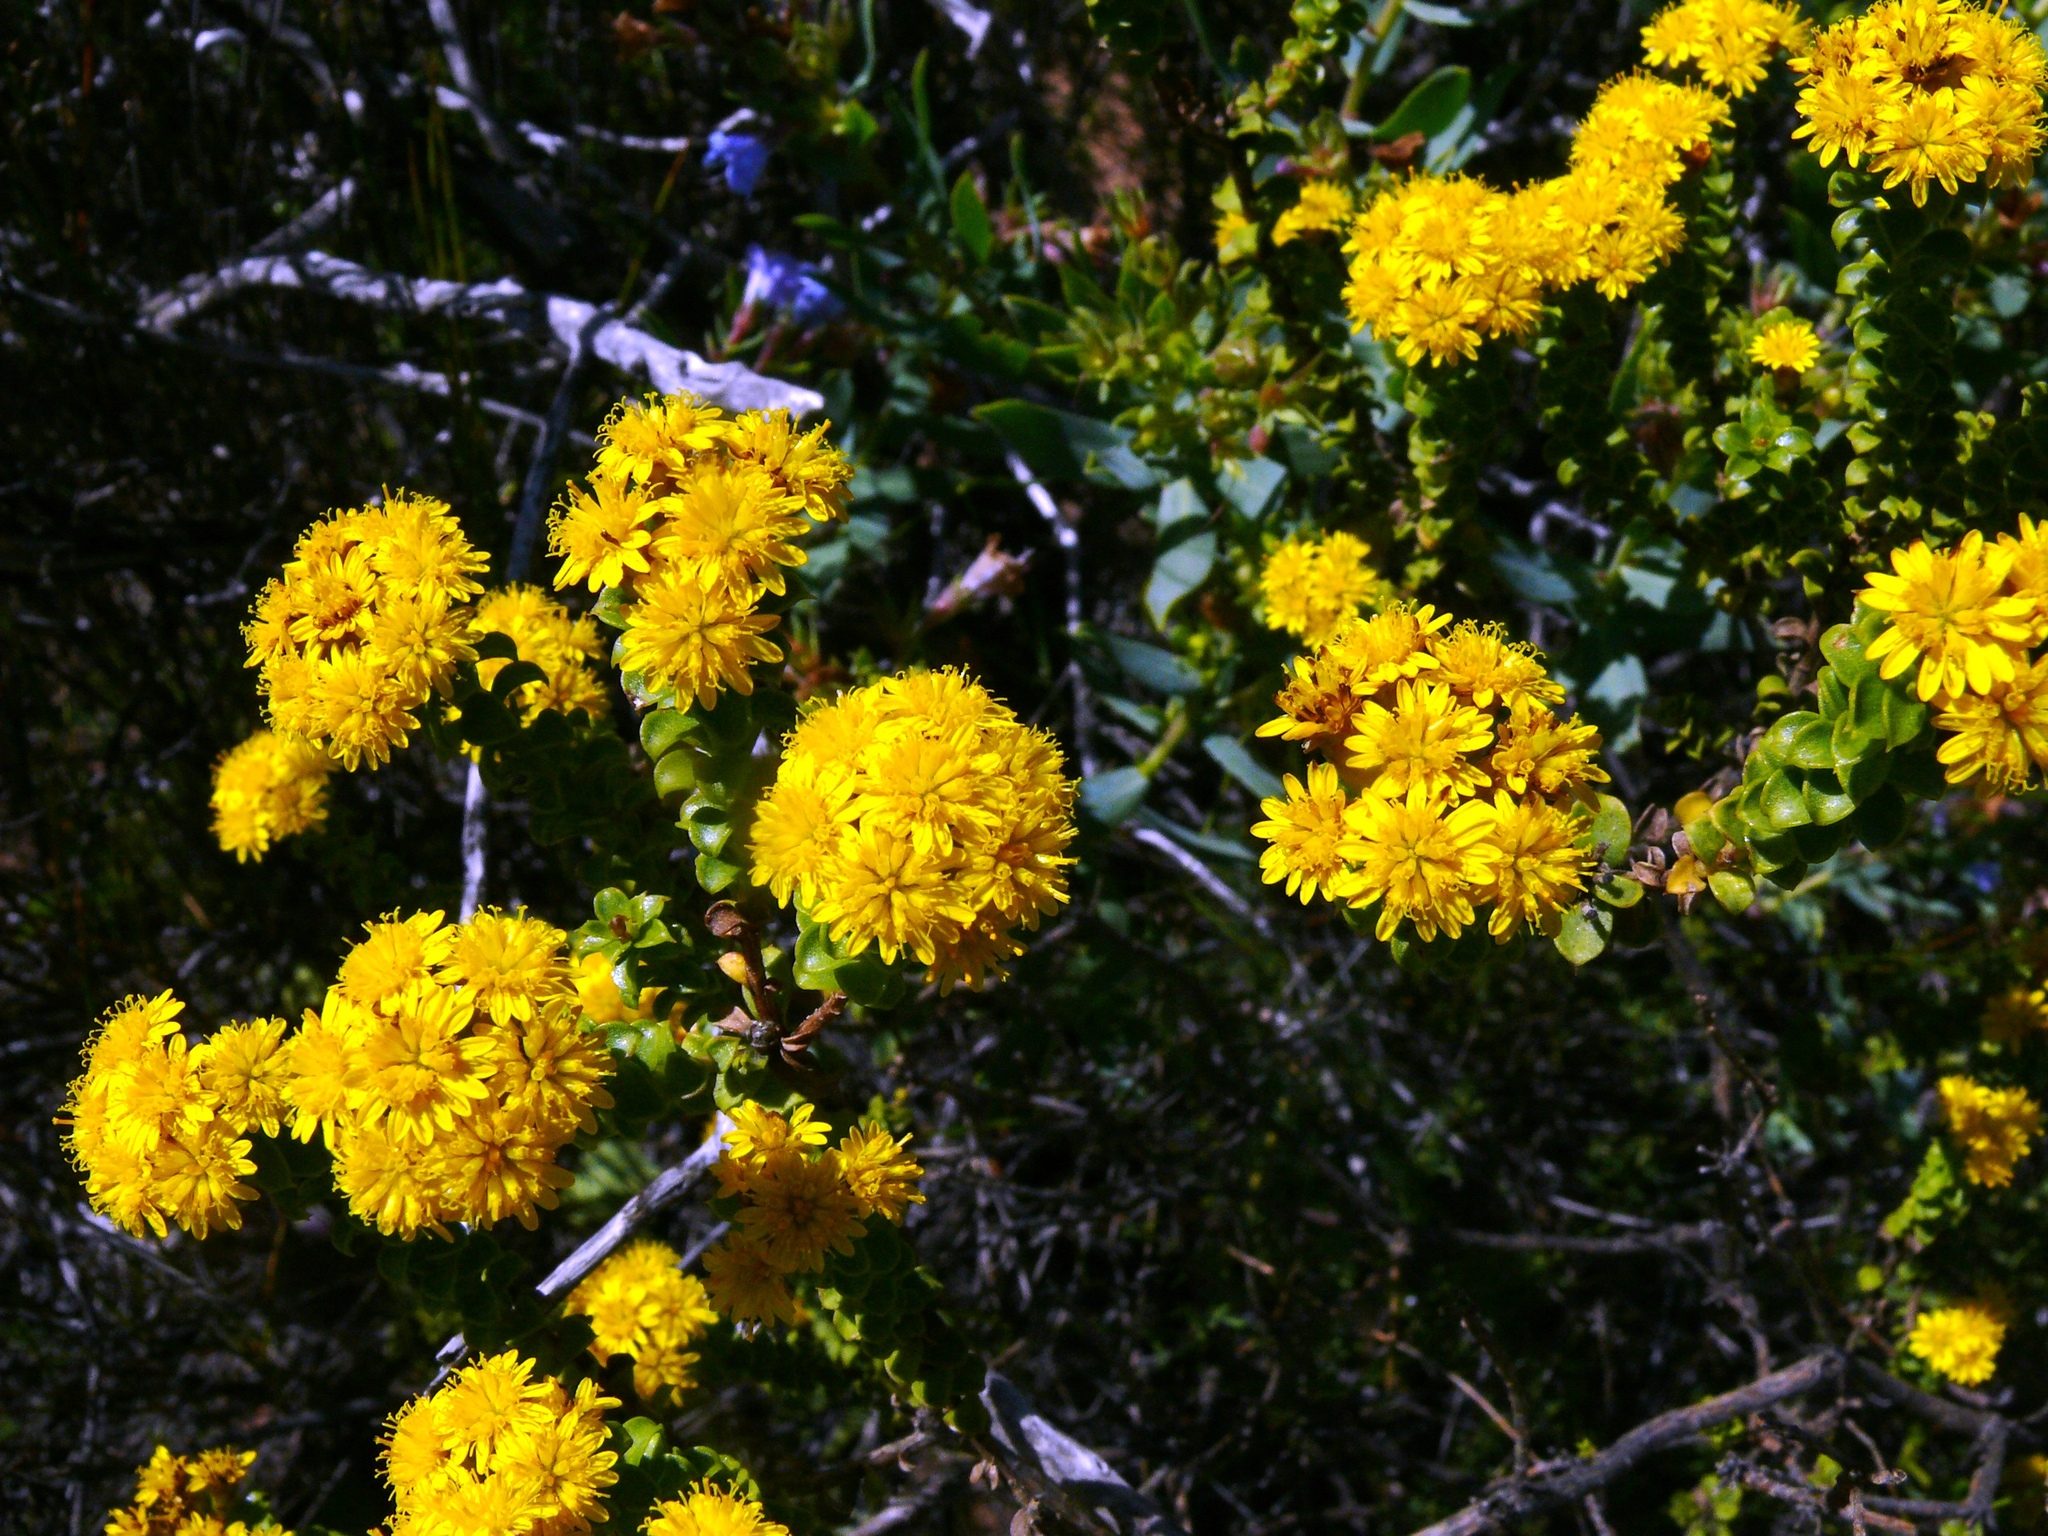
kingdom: Plantae
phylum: Tracheophyta
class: Magnoliopsida
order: Asterales
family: Asteraceae
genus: Oedera
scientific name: Oedera squarrosa
